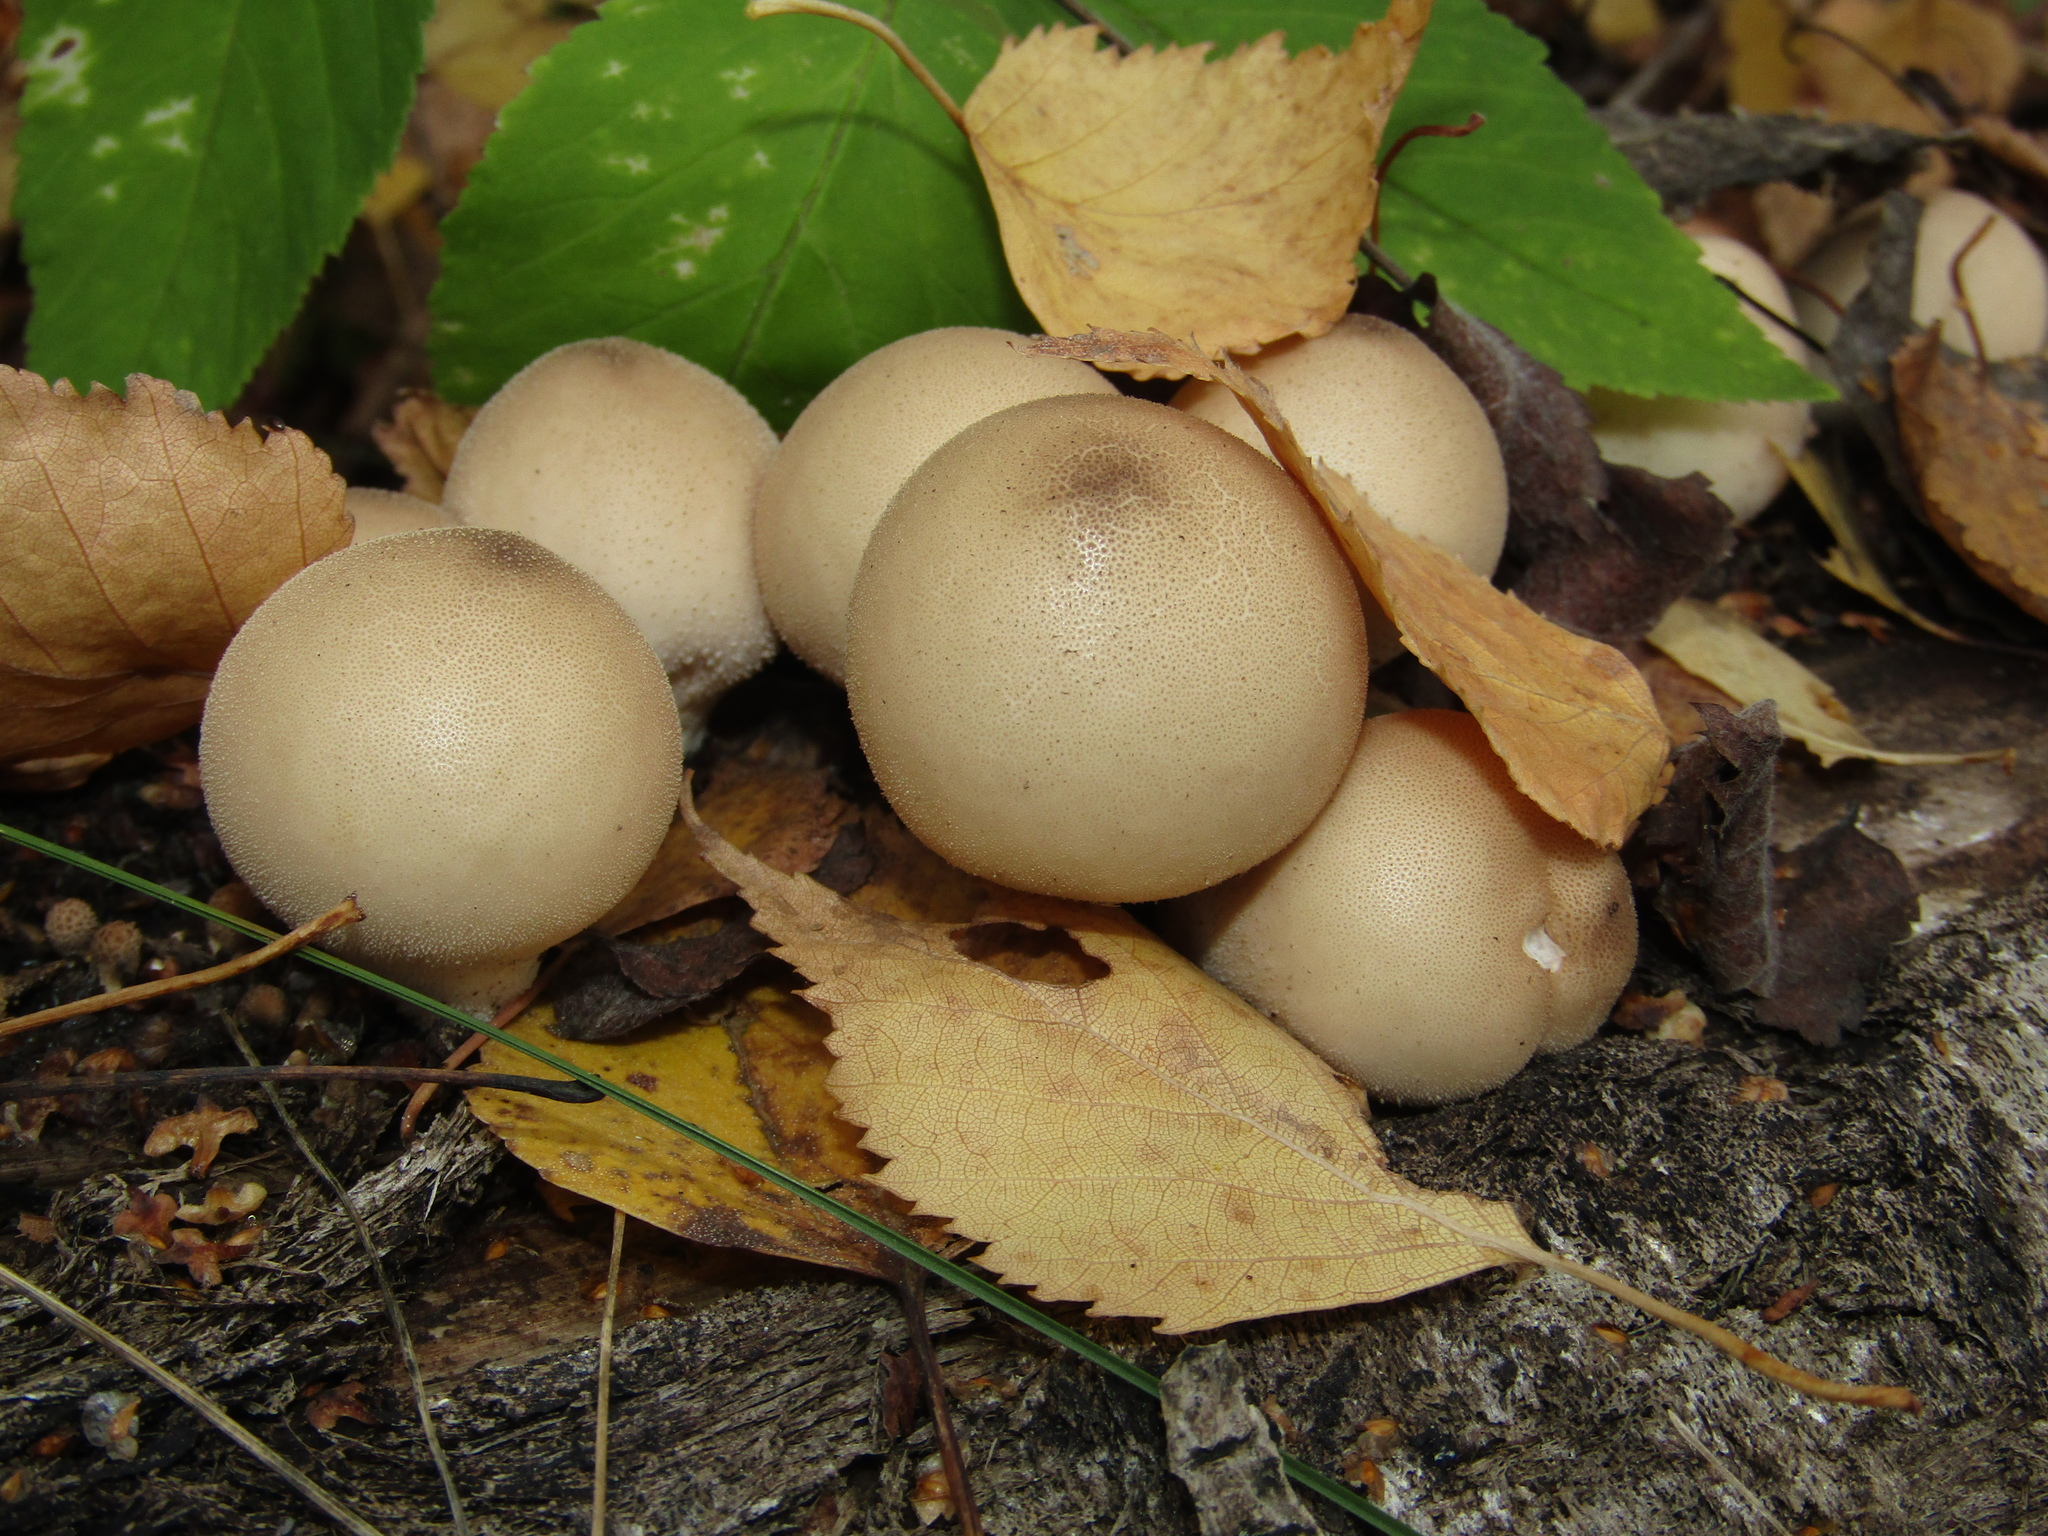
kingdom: Fungi
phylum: Basidiomycota
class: Agaricomycetes
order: Agaricales
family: Lycoperdaceae
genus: Apioperdon
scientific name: Apioperdon pyriforme
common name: Pear-shaped puffball
